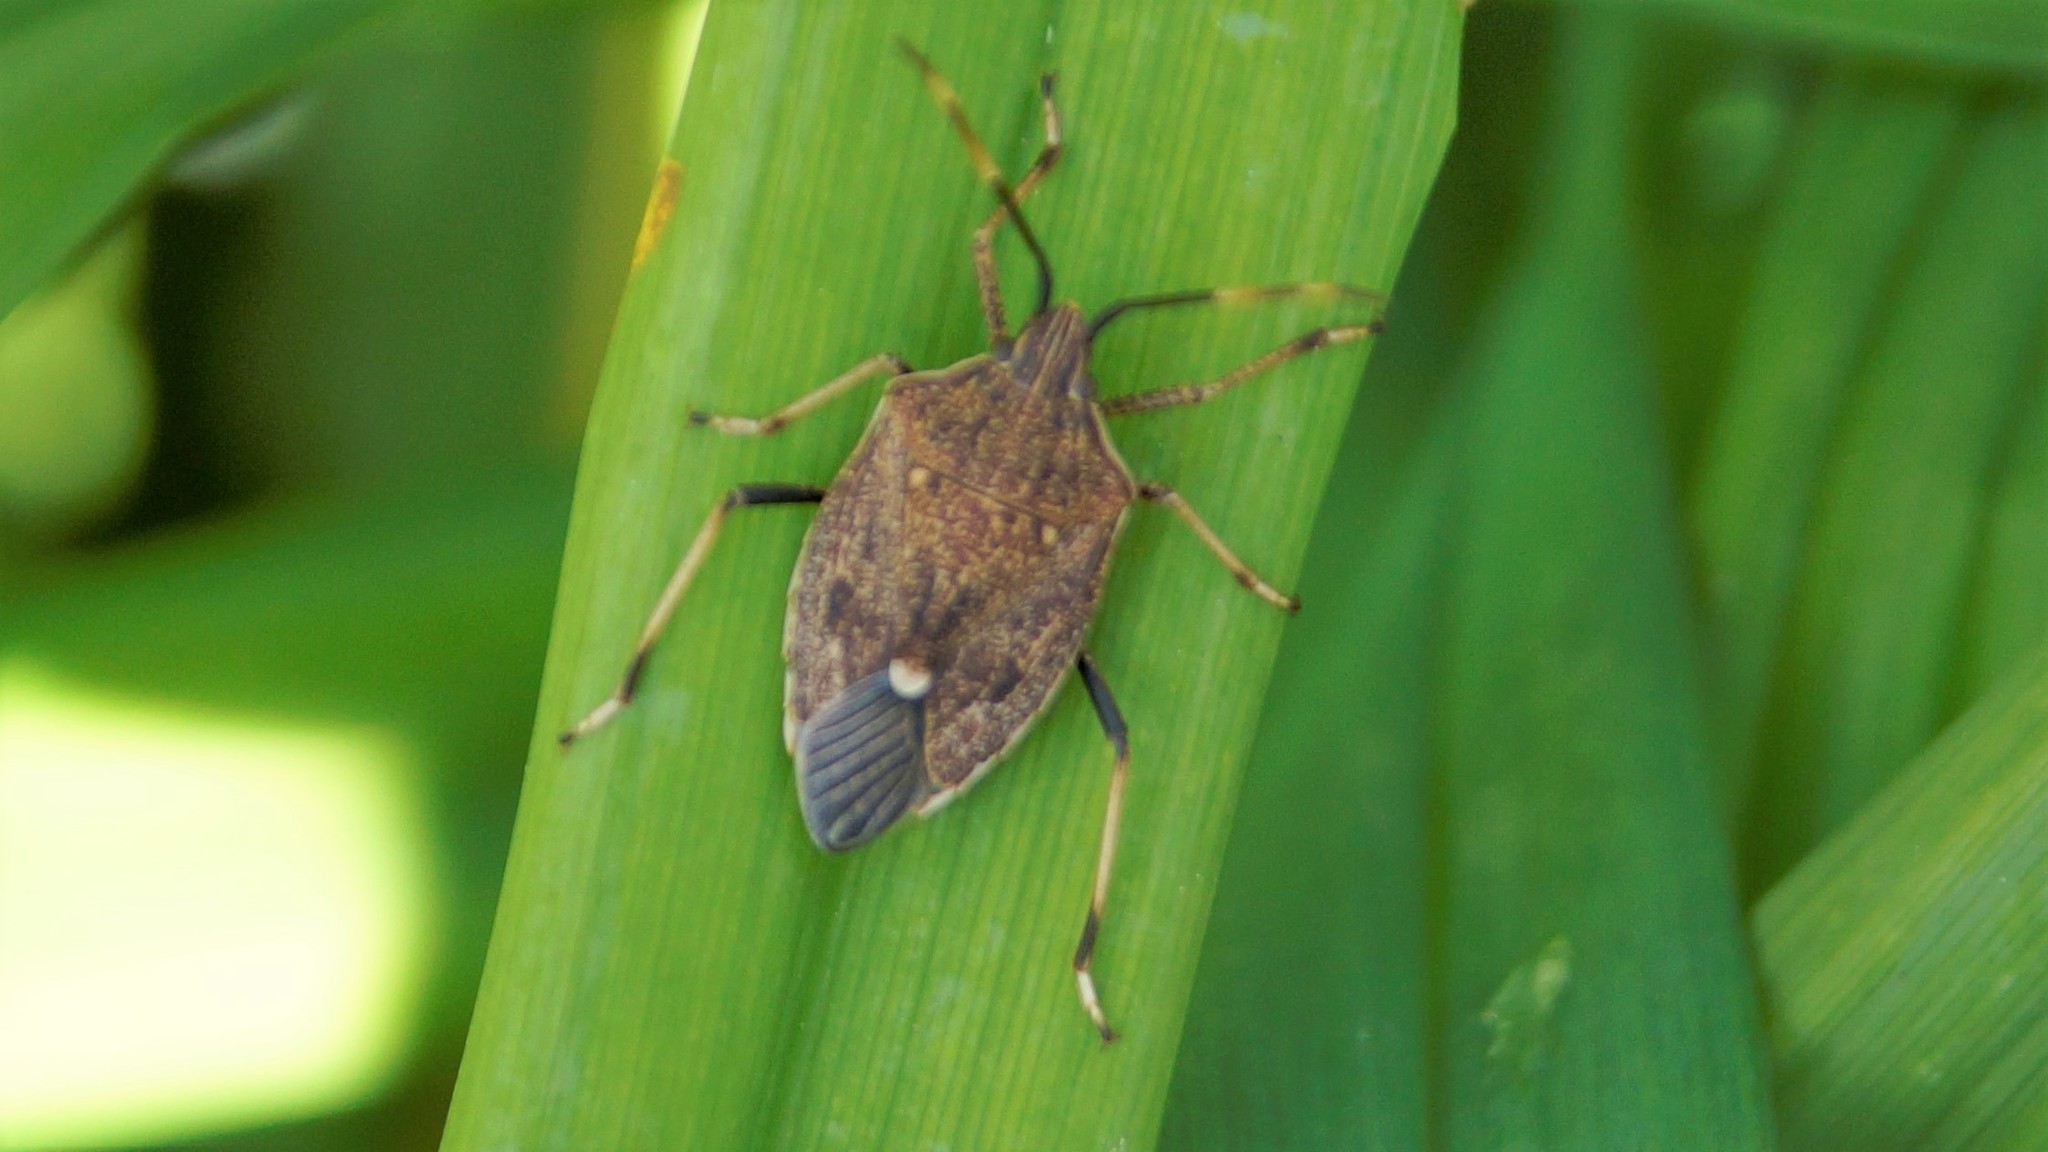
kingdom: Animalia
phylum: Arthropoda
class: Insecta
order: Hemiptera
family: Pentatomidae
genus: Poecilometis
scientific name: Poecilometis
